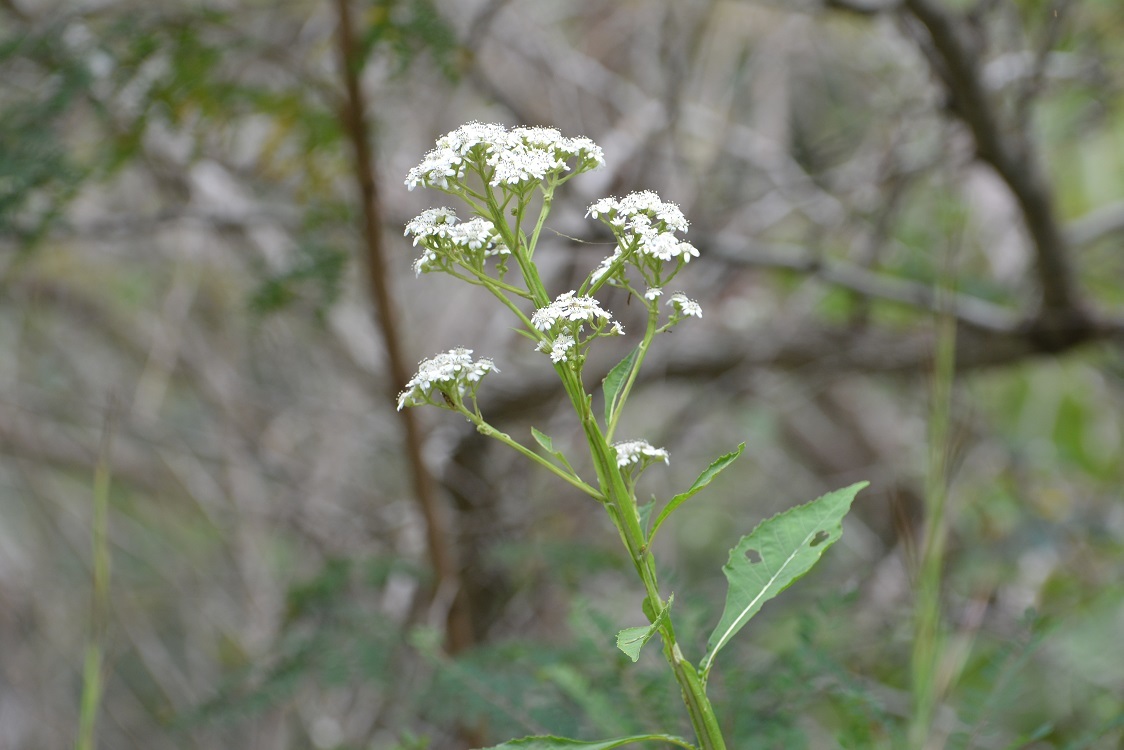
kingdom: Plantae
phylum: Tracheophyta
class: Magnoliopsida
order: Asterales
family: Asteraceae
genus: Verbesina
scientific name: Verbesina turbacensis
